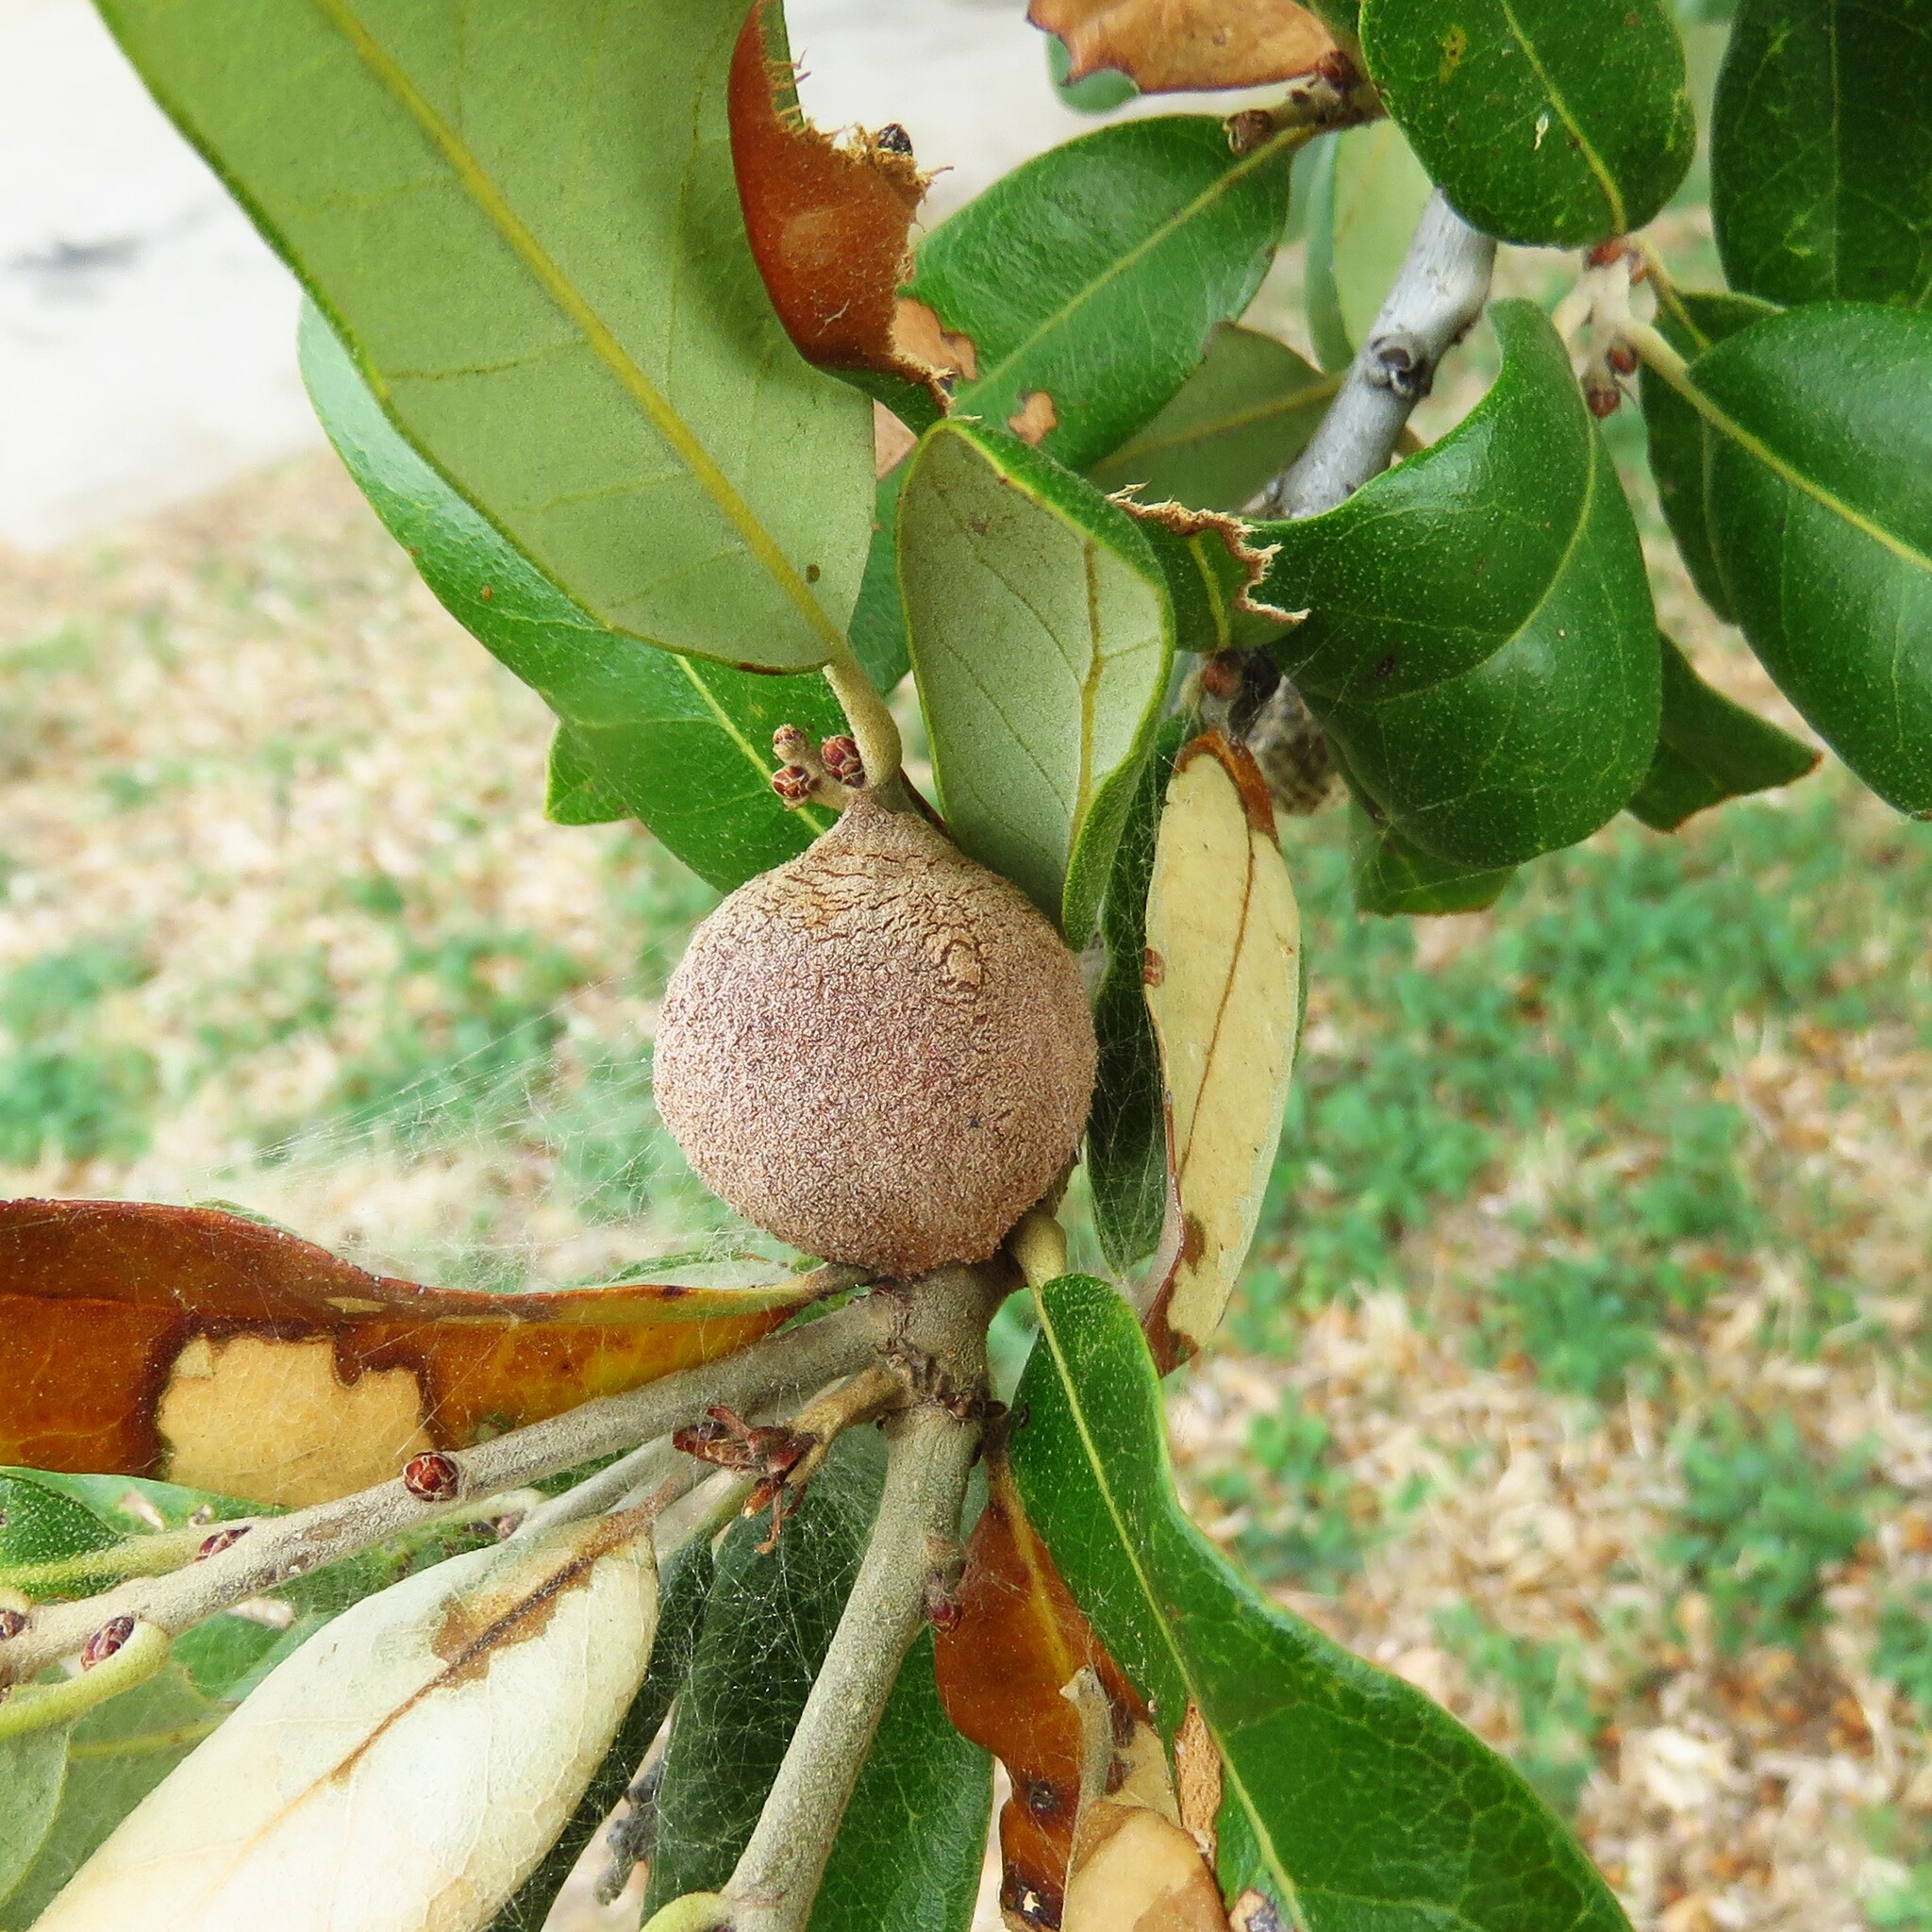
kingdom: Animalia
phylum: Arthropoda
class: Insecta
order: Hymenoptera
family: Cynipidae
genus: Disholcaspis
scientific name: Disholcaspis
